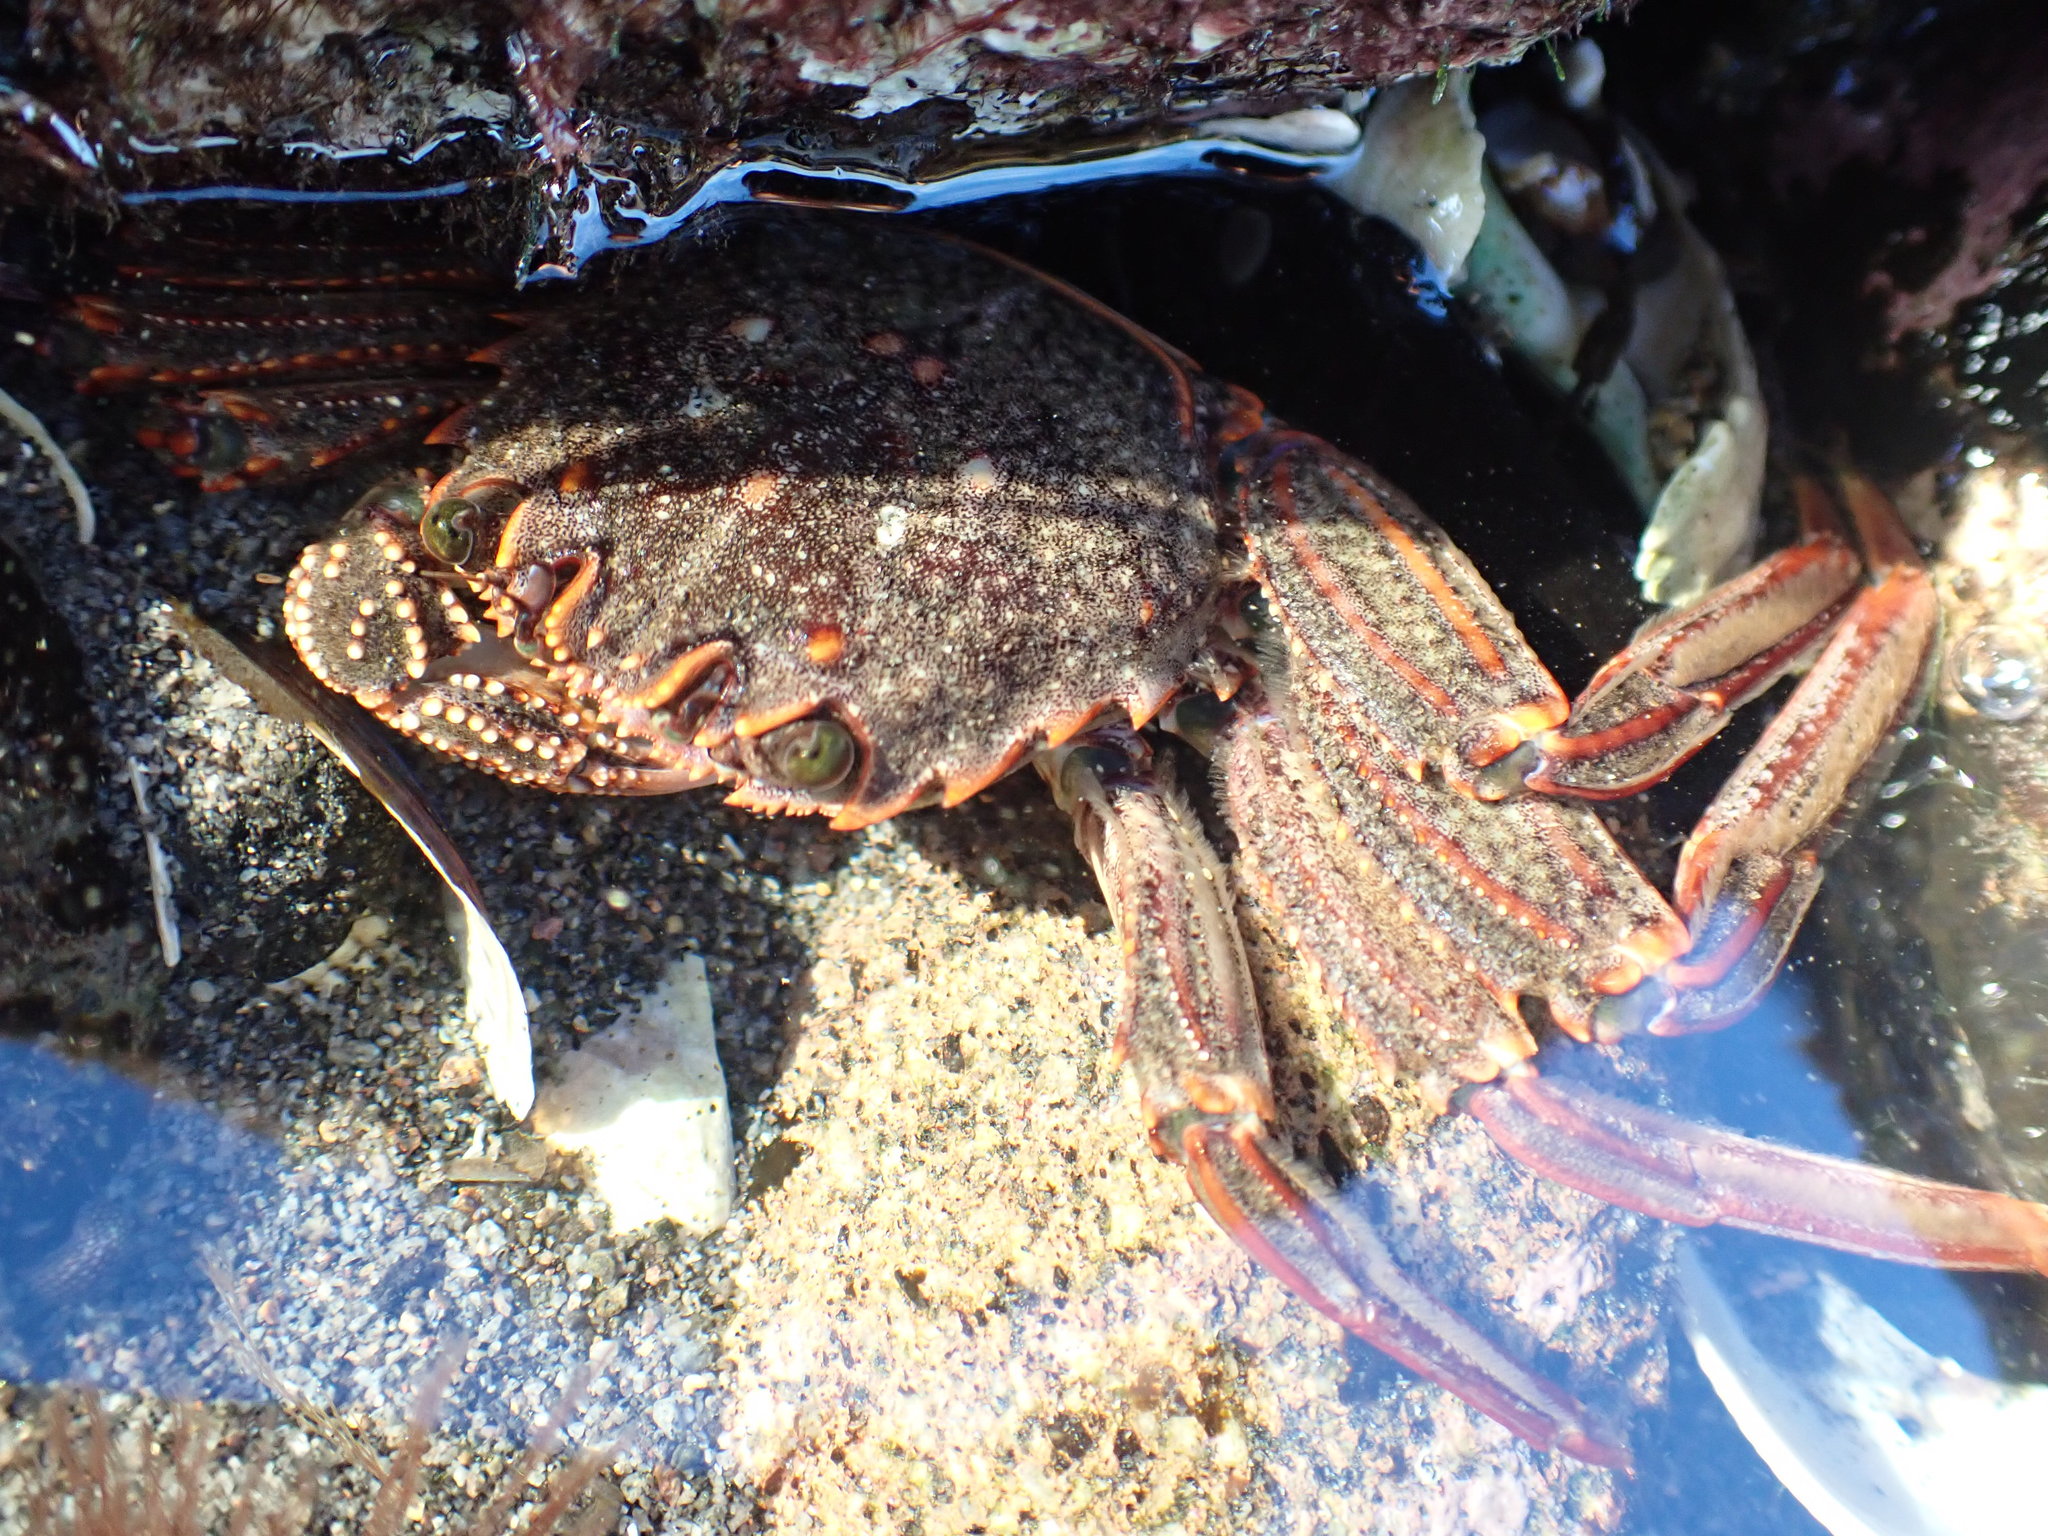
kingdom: Animalia
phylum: Arthropoda
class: Malacostraca
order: Decapoda
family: Plagusiidae
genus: Guinusia
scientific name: Guinusia chabrus
